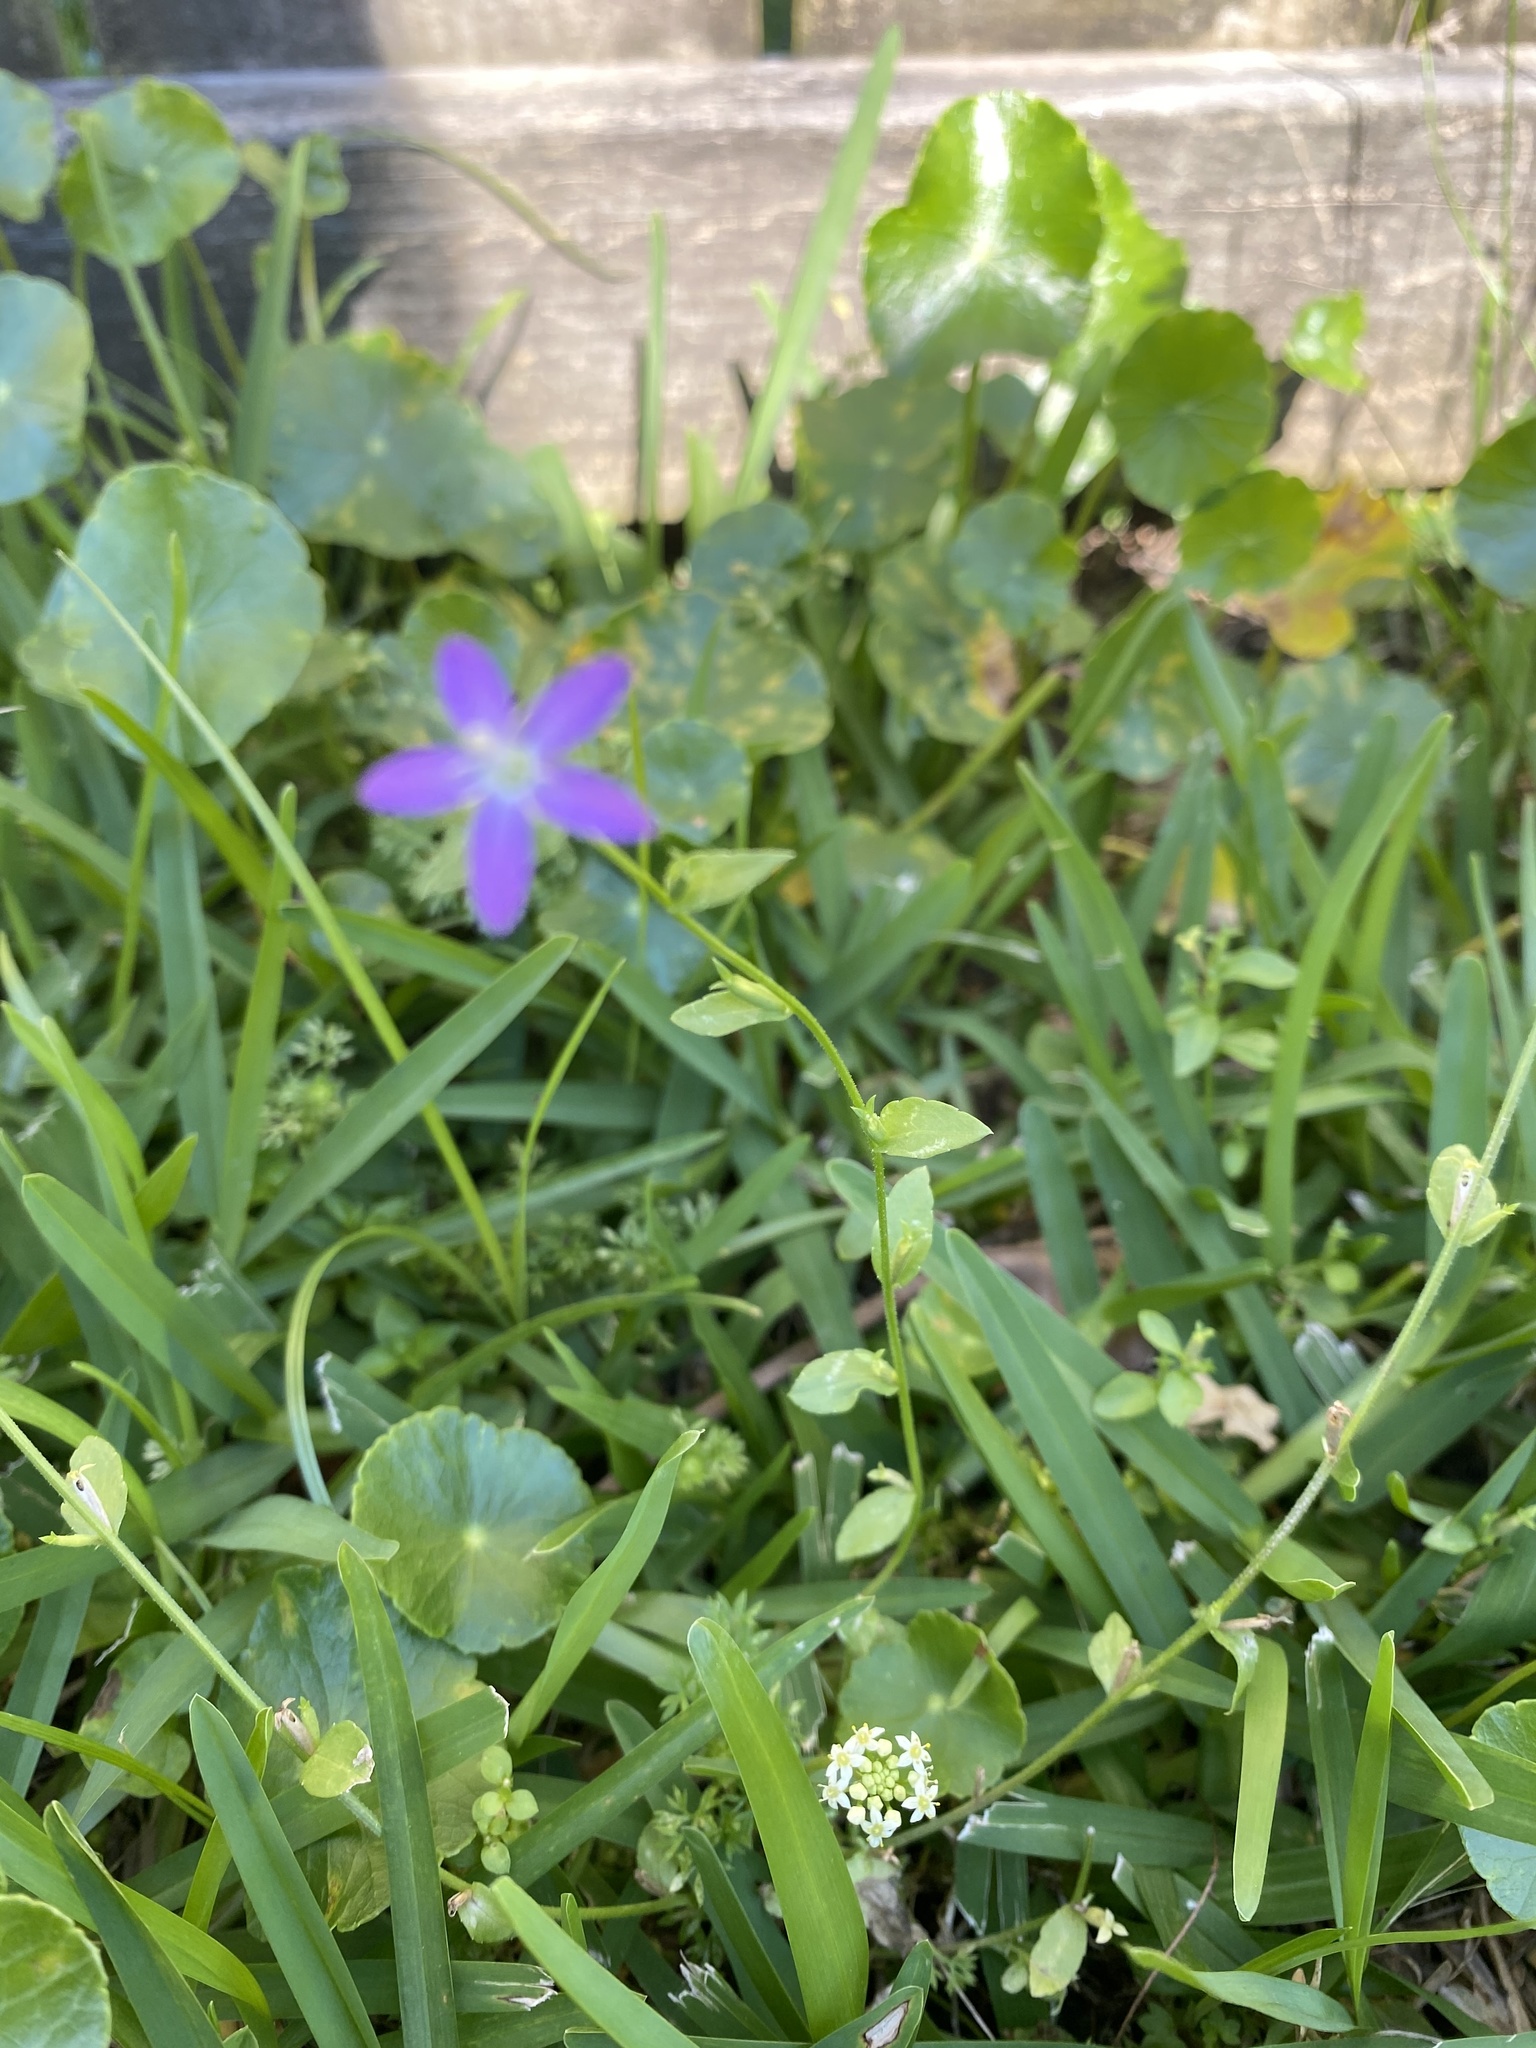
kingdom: Plantae
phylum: Tracheophyta
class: Magnoliopsida
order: Asterales
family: Campanulaceae
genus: Triodanis
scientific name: Triodanis biflora
